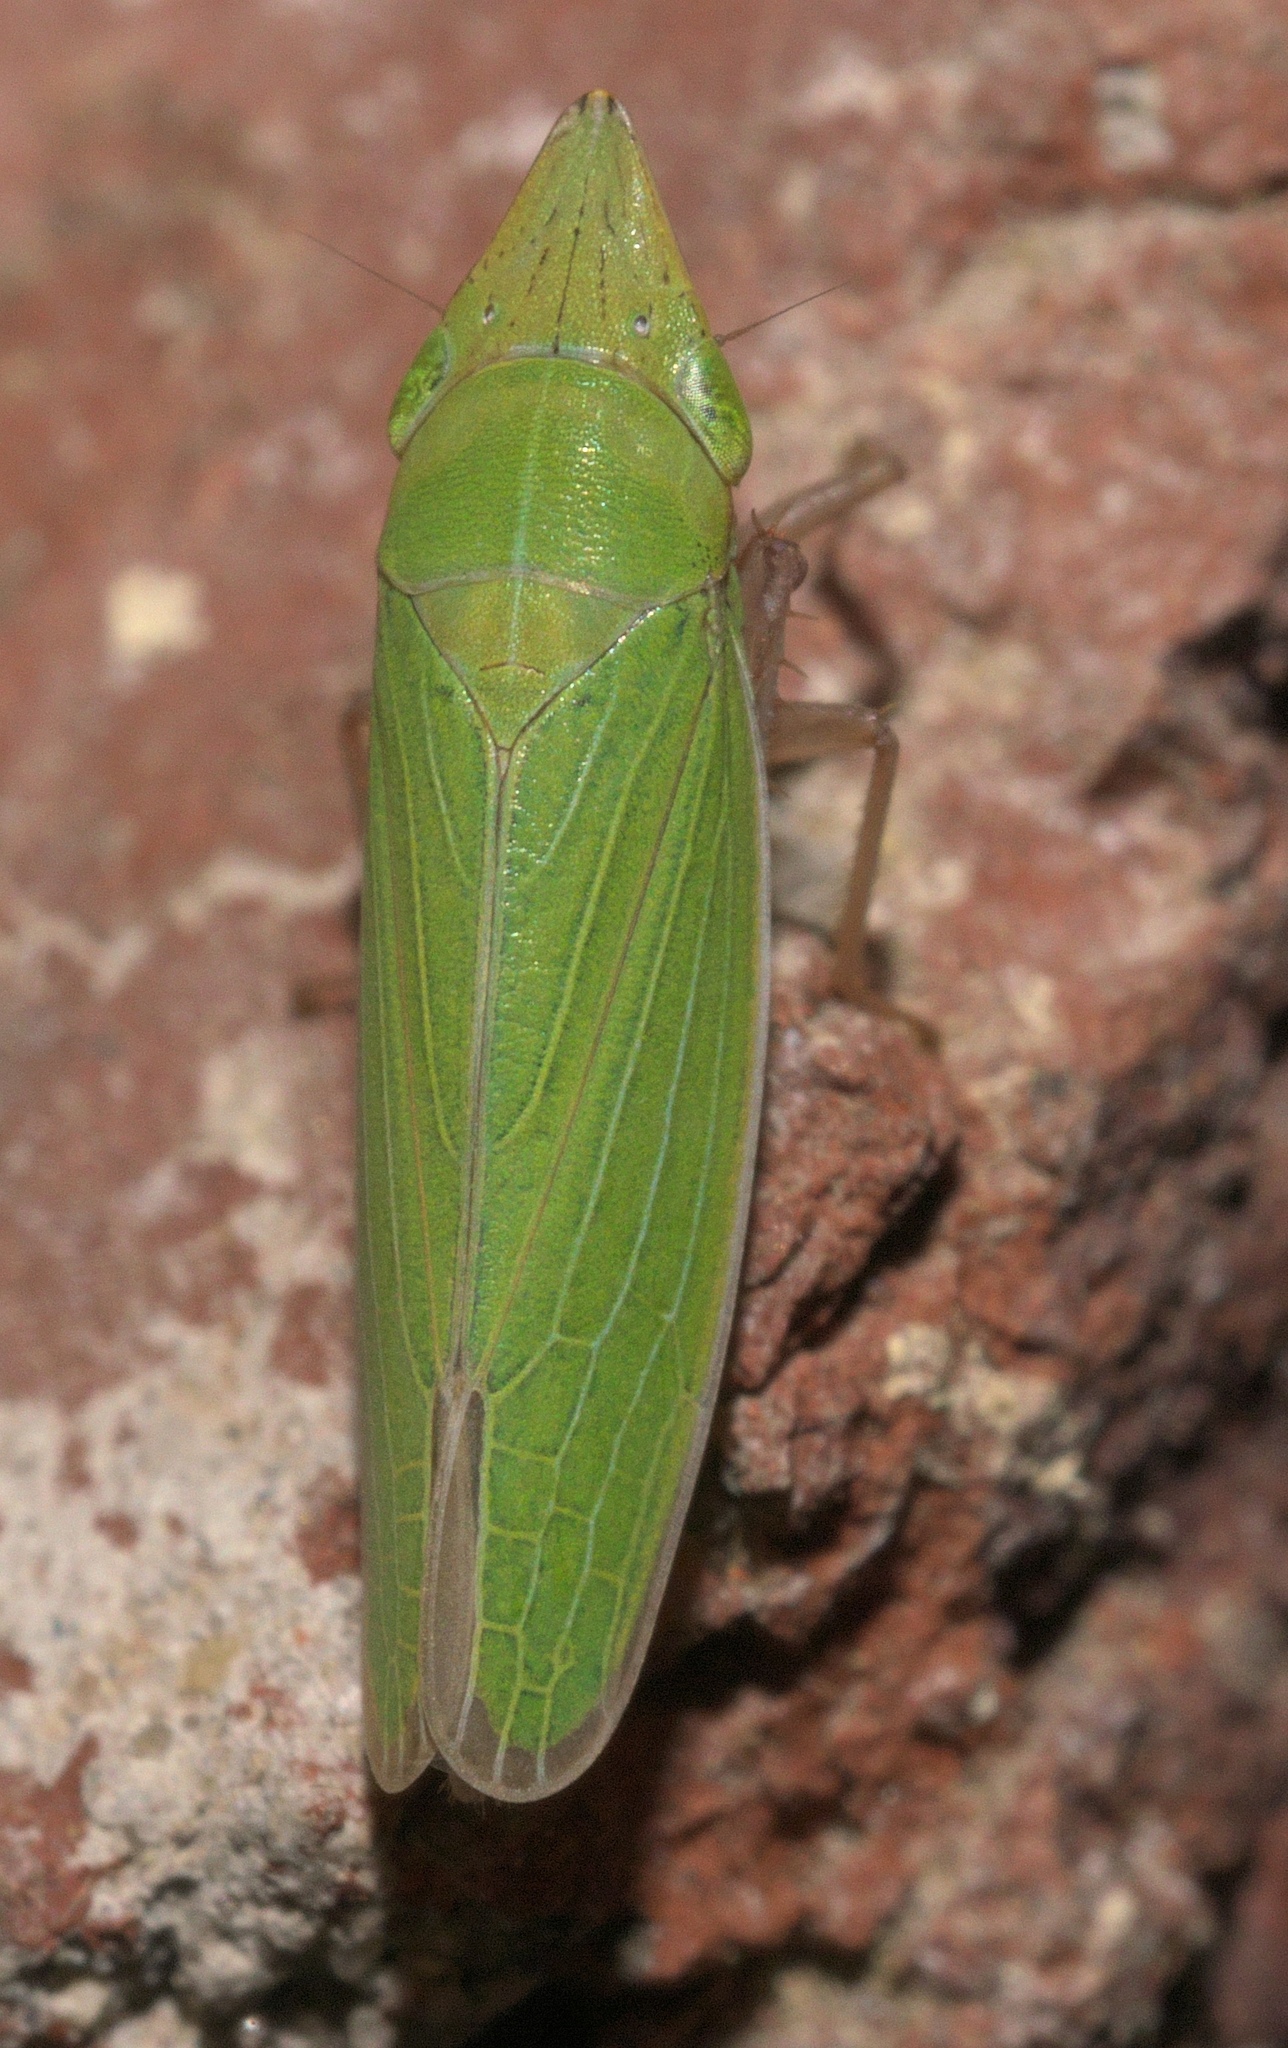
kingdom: Animalia
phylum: Arthropoda
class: Insecta
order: Hemiptera
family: Cicadellidae
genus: Draeculacephala
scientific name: Draeculacephala antica
